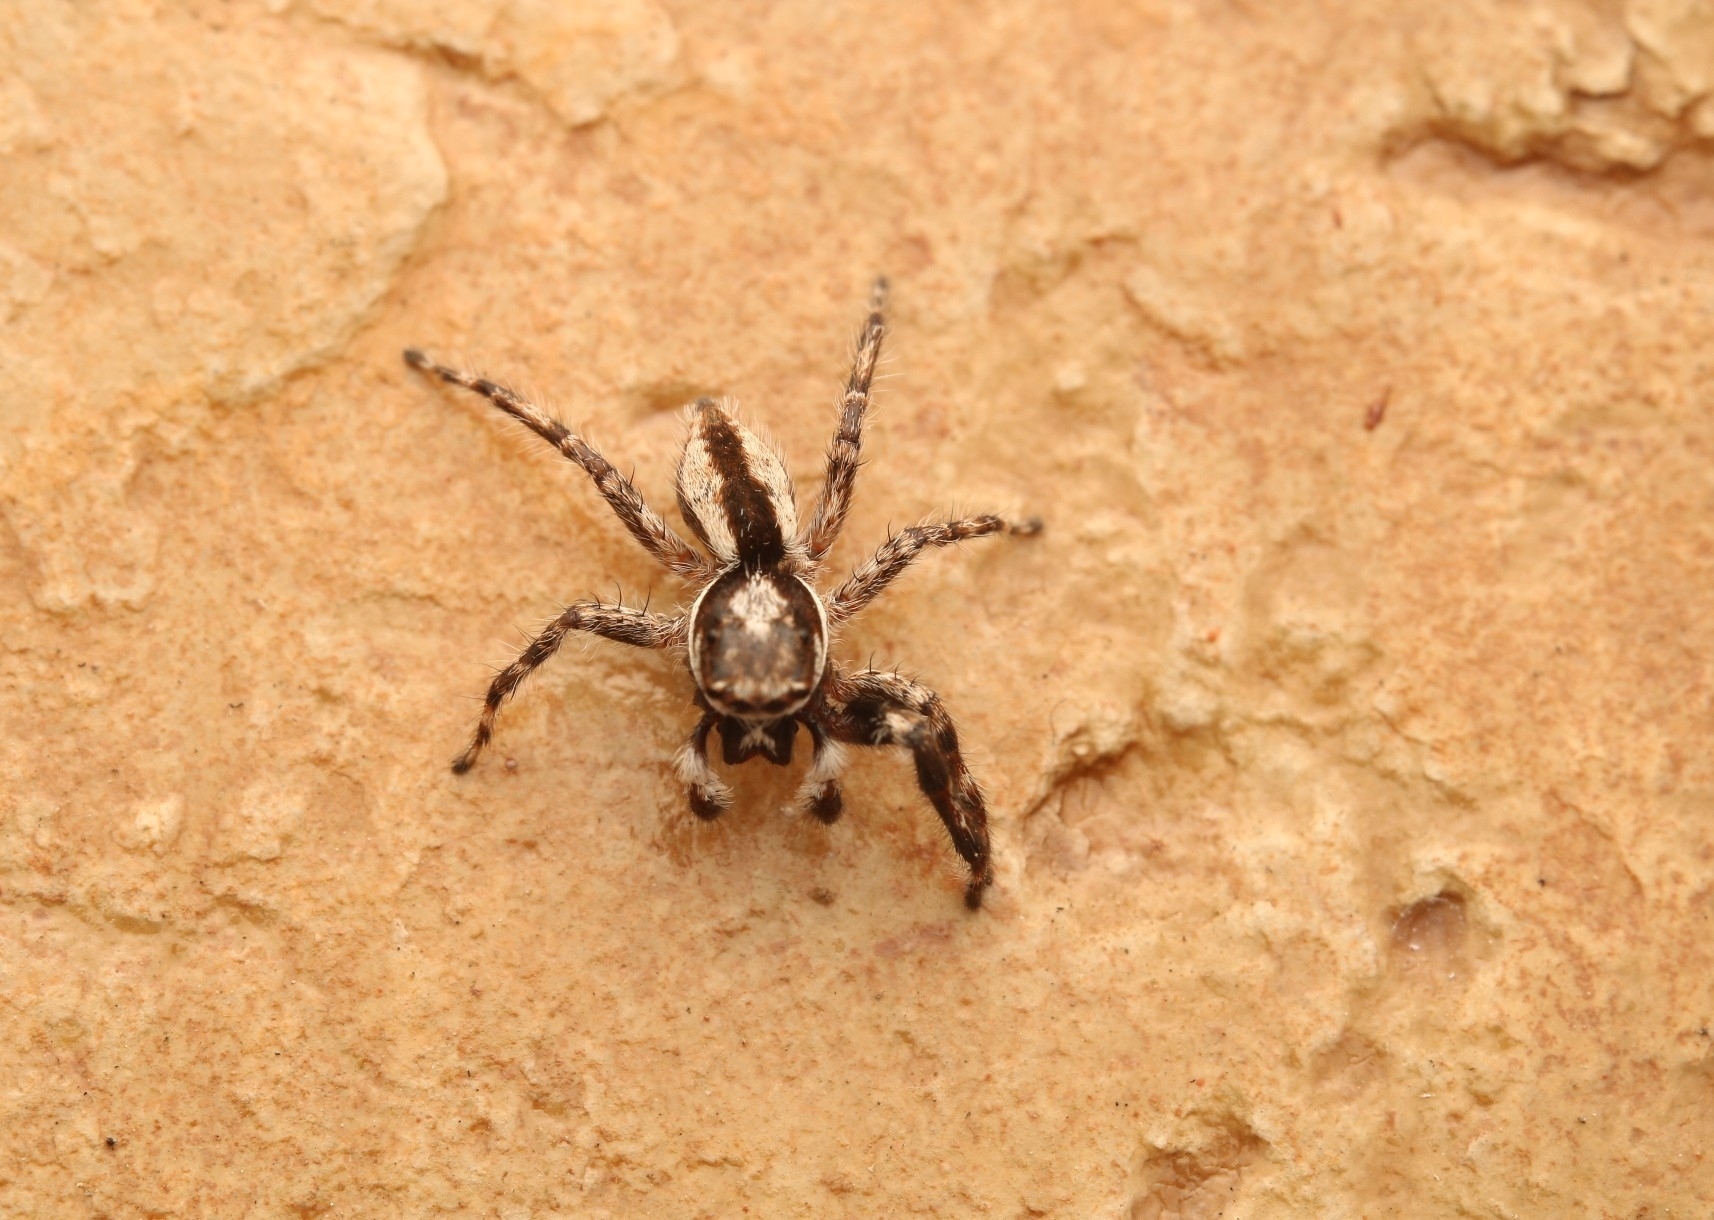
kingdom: Animalia
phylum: Arthropoda
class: Arachnida
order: Araneae
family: Salticidae
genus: Menemerus
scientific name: Menemerus bivittatus
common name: Gray wall jumper
